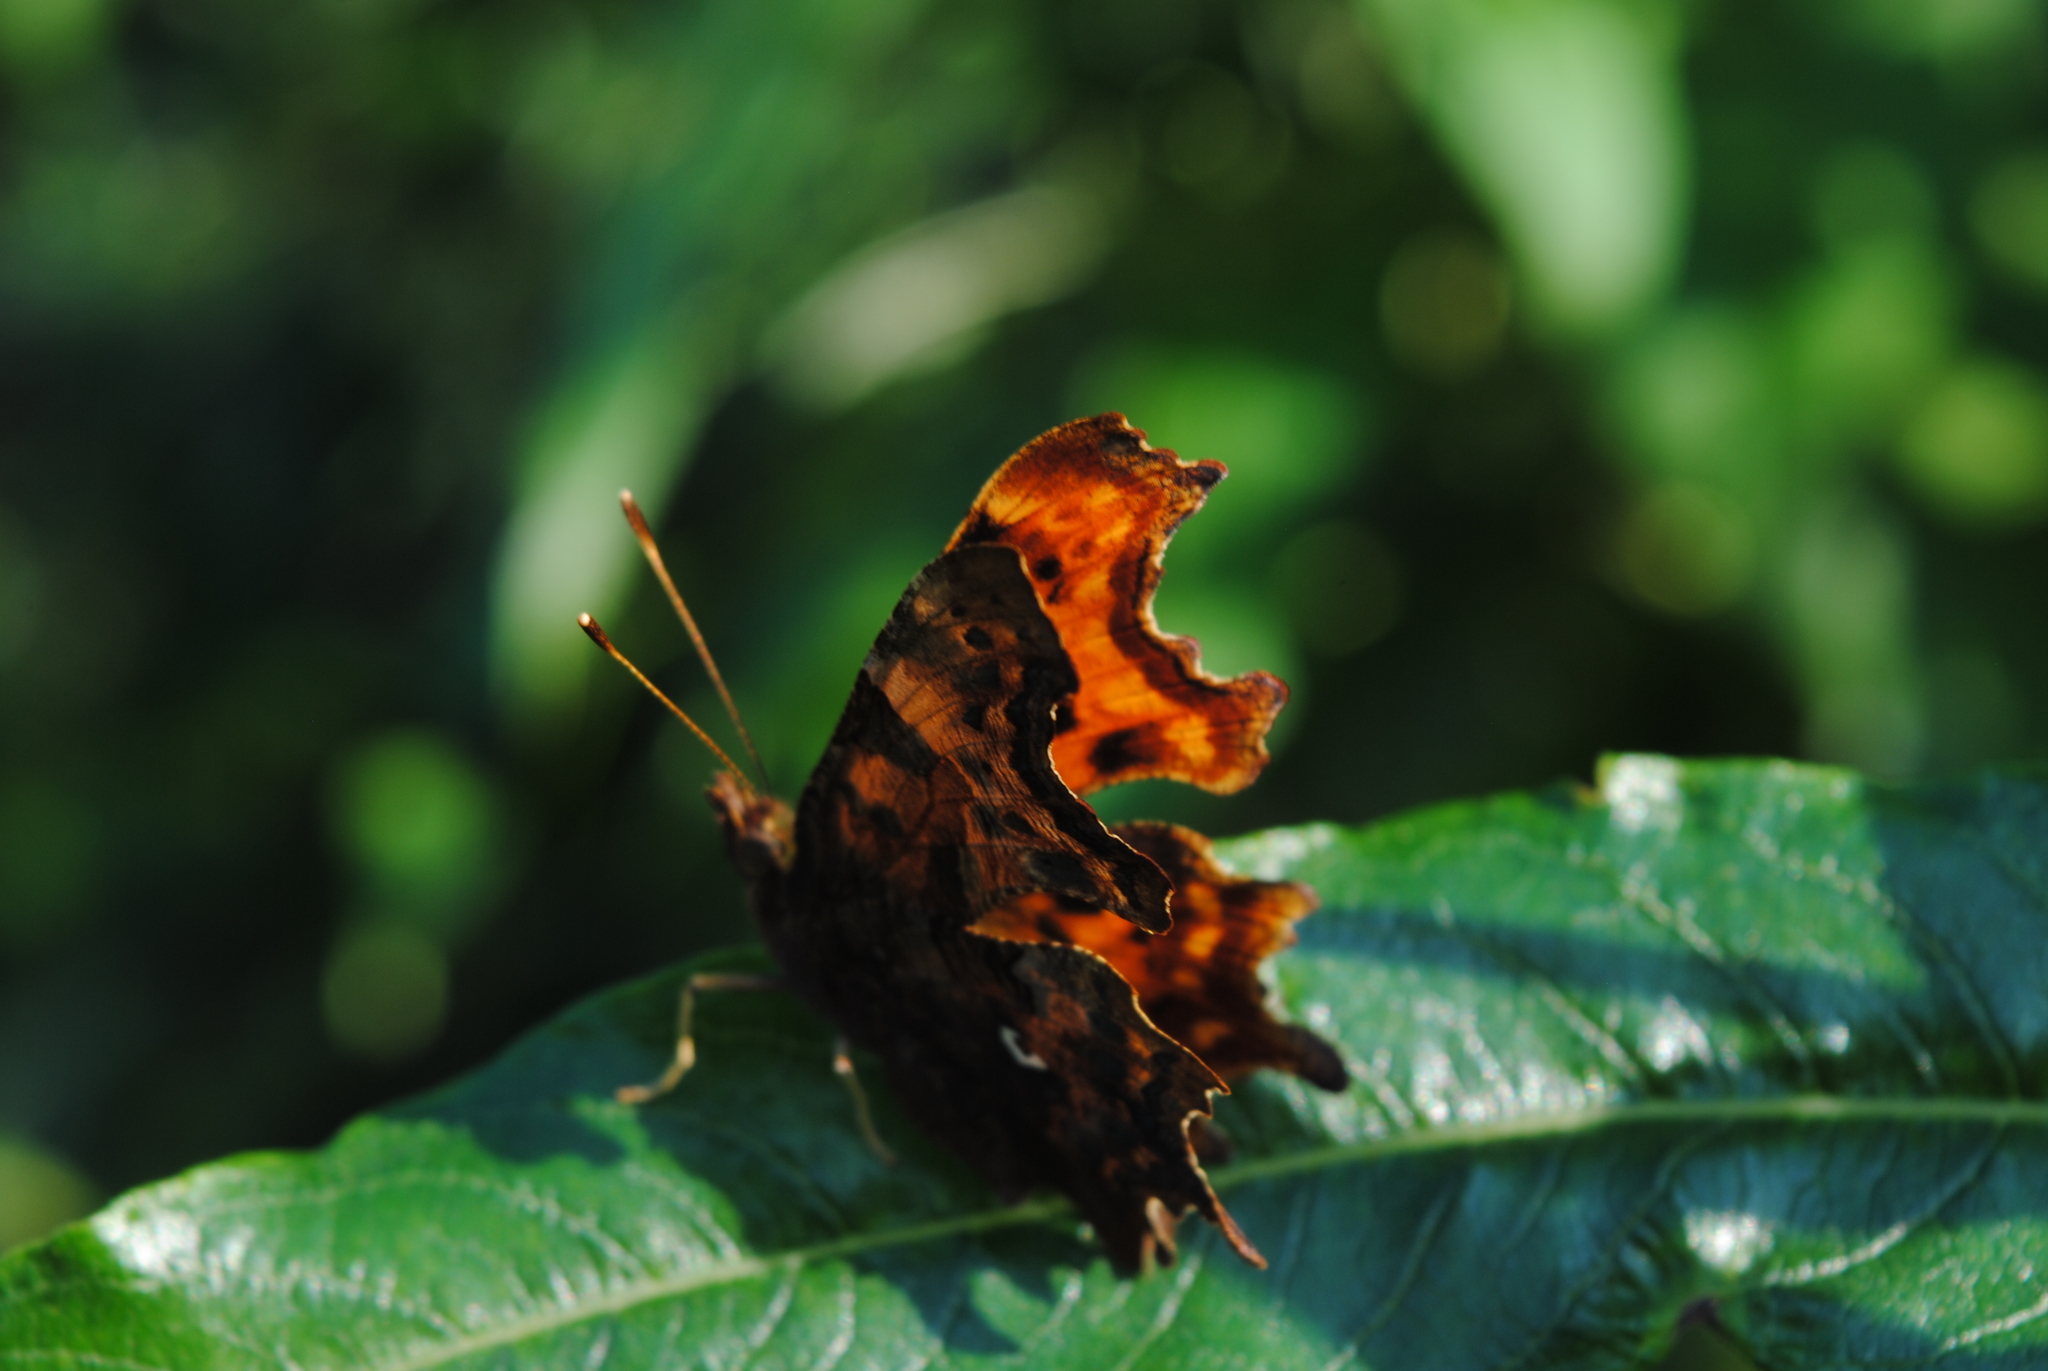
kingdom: Animalia
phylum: Arthropoda
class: Insecta
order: Lepidoptera
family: Nymphalidae
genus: Polygonia
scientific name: Polygonia c-album
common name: Comma
